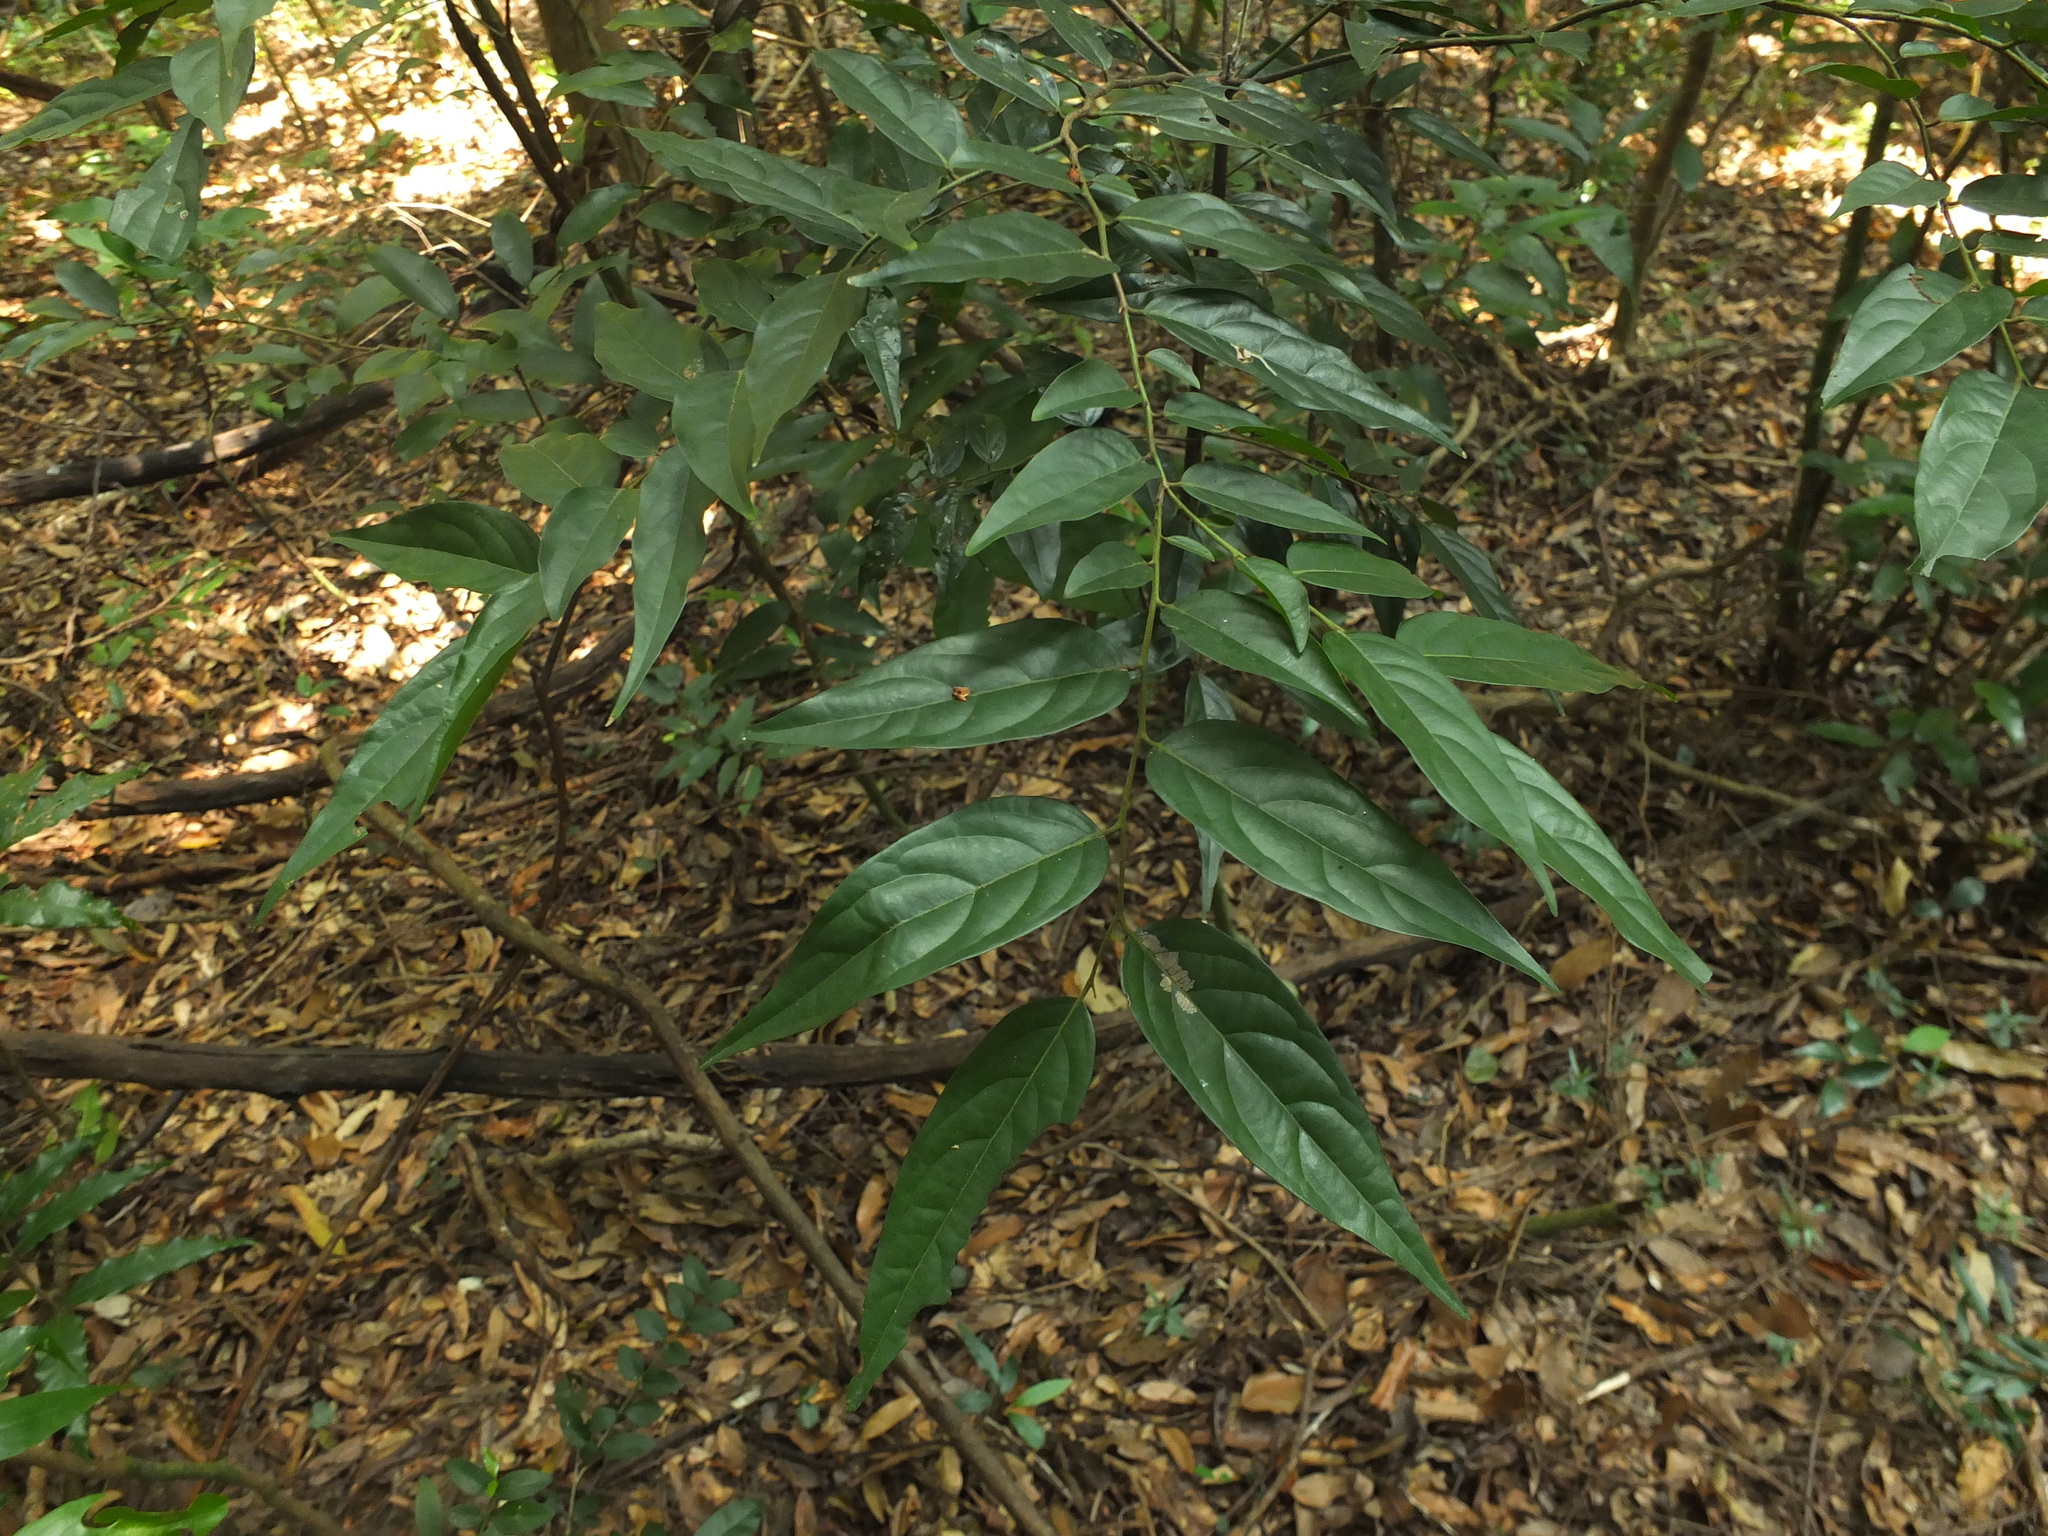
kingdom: Plantae
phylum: Tracheophyta
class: Magnoliopsida
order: Ericales
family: Ebenaceae
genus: Diospyros
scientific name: Diospyros ghatensis
